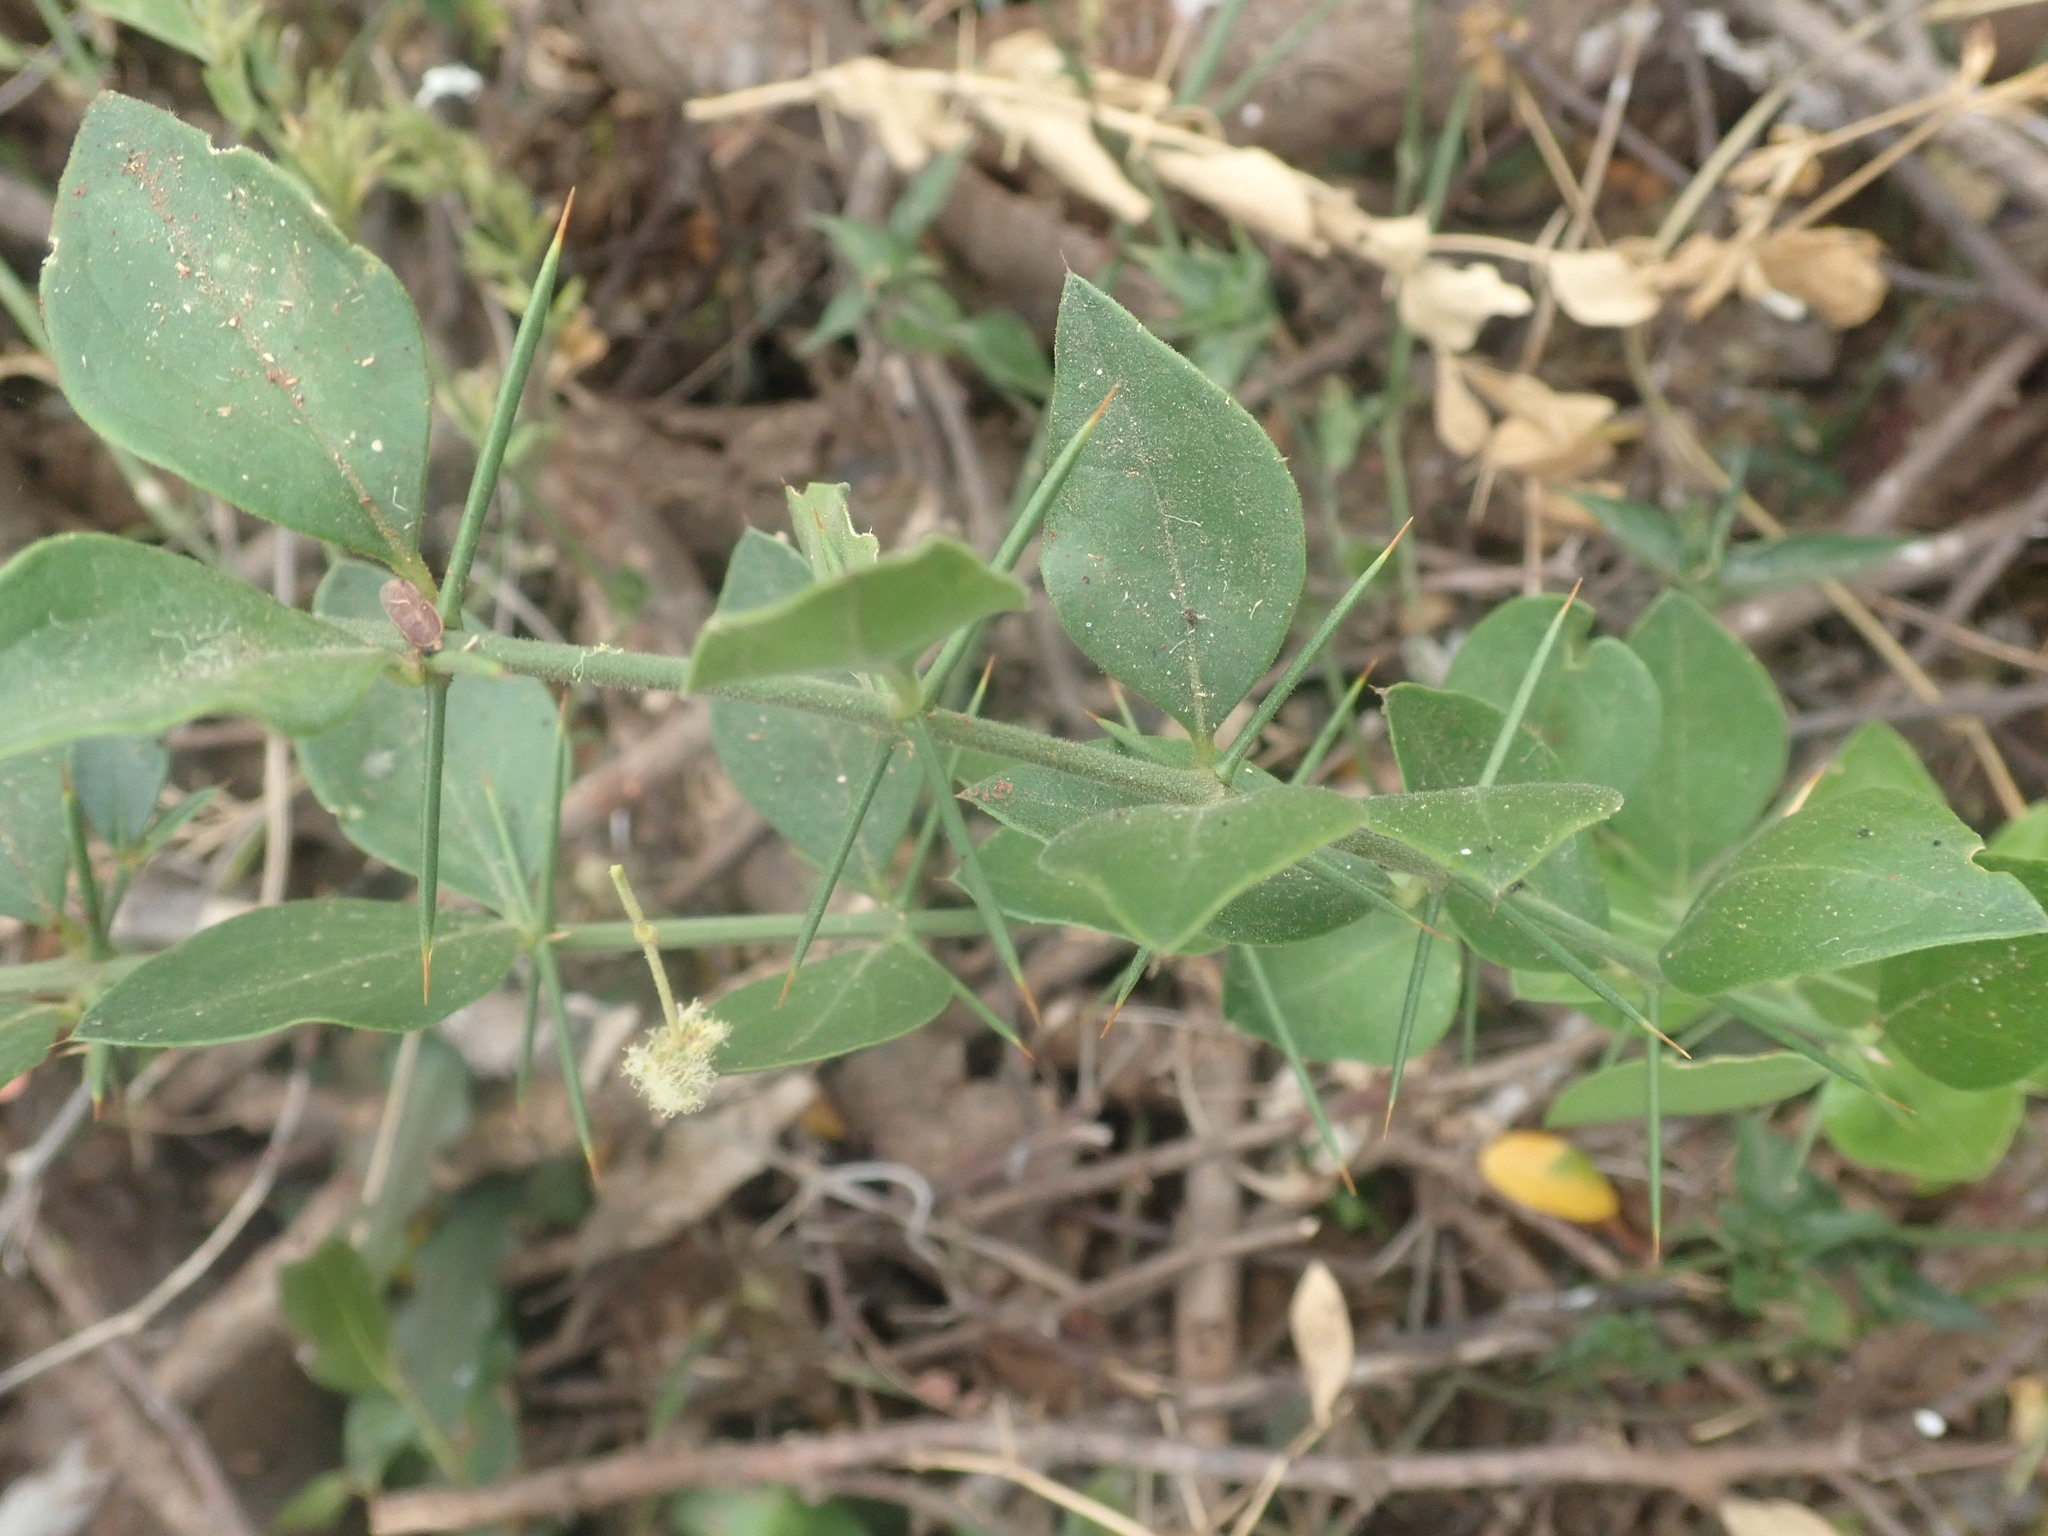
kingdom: Plantae
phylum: Tracheophyta
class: Magnoliopsida
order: Brassicales
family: Salvadoraceae
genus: Azima
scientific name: Azima tetracantha
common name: Needle bush
